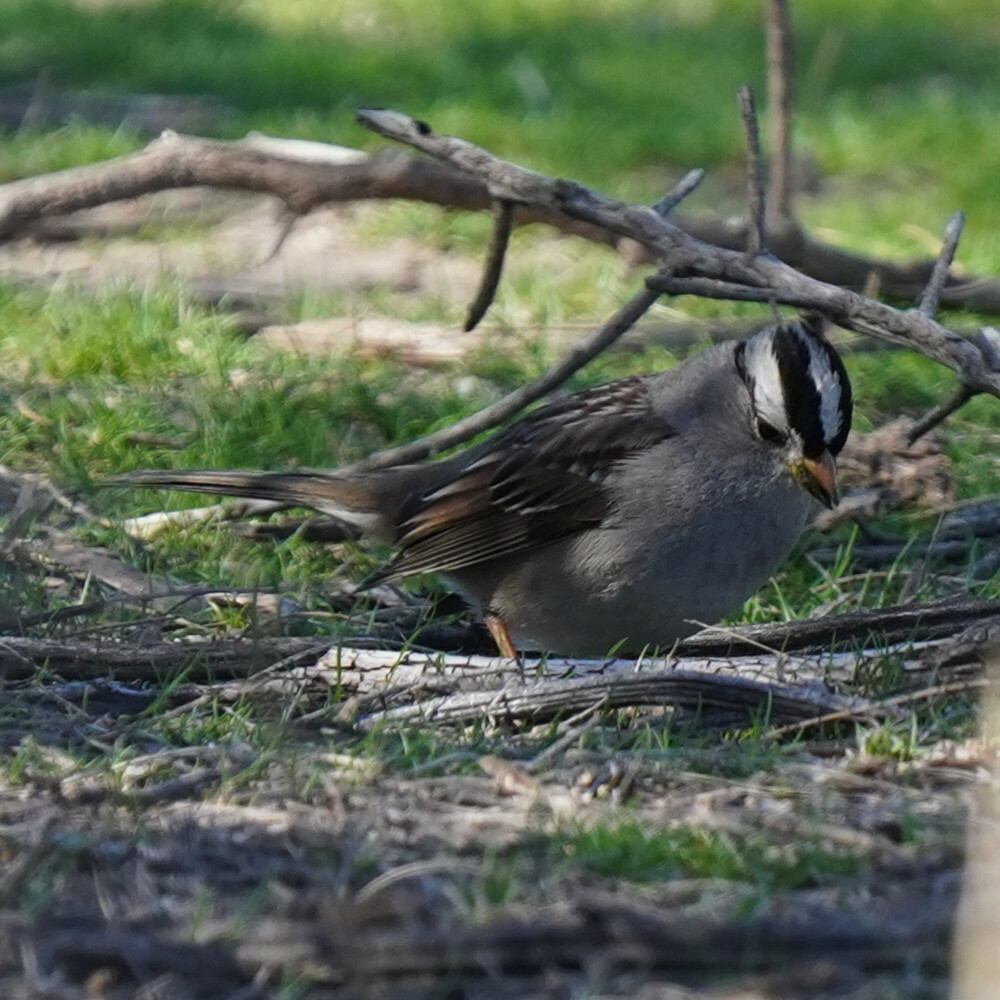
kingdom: Animalia
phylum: Chordata
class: Aves
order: Passeriformes
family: Passerellidae
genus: Zonotrichia
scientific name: Zonotrichia leucophrys
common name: White-crowned sparrow
